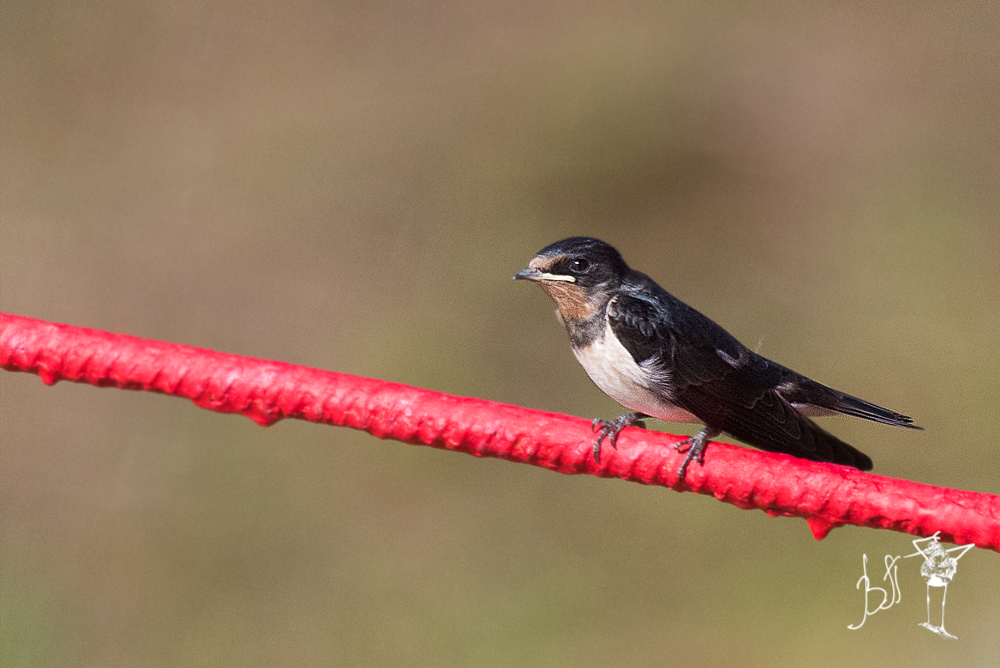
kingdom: Animalia
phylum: Chordata
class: Aves
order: Passeriformes
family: Hirundinidae
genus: Hirundo
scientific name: Hirundo rustica
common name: Barn swallow
